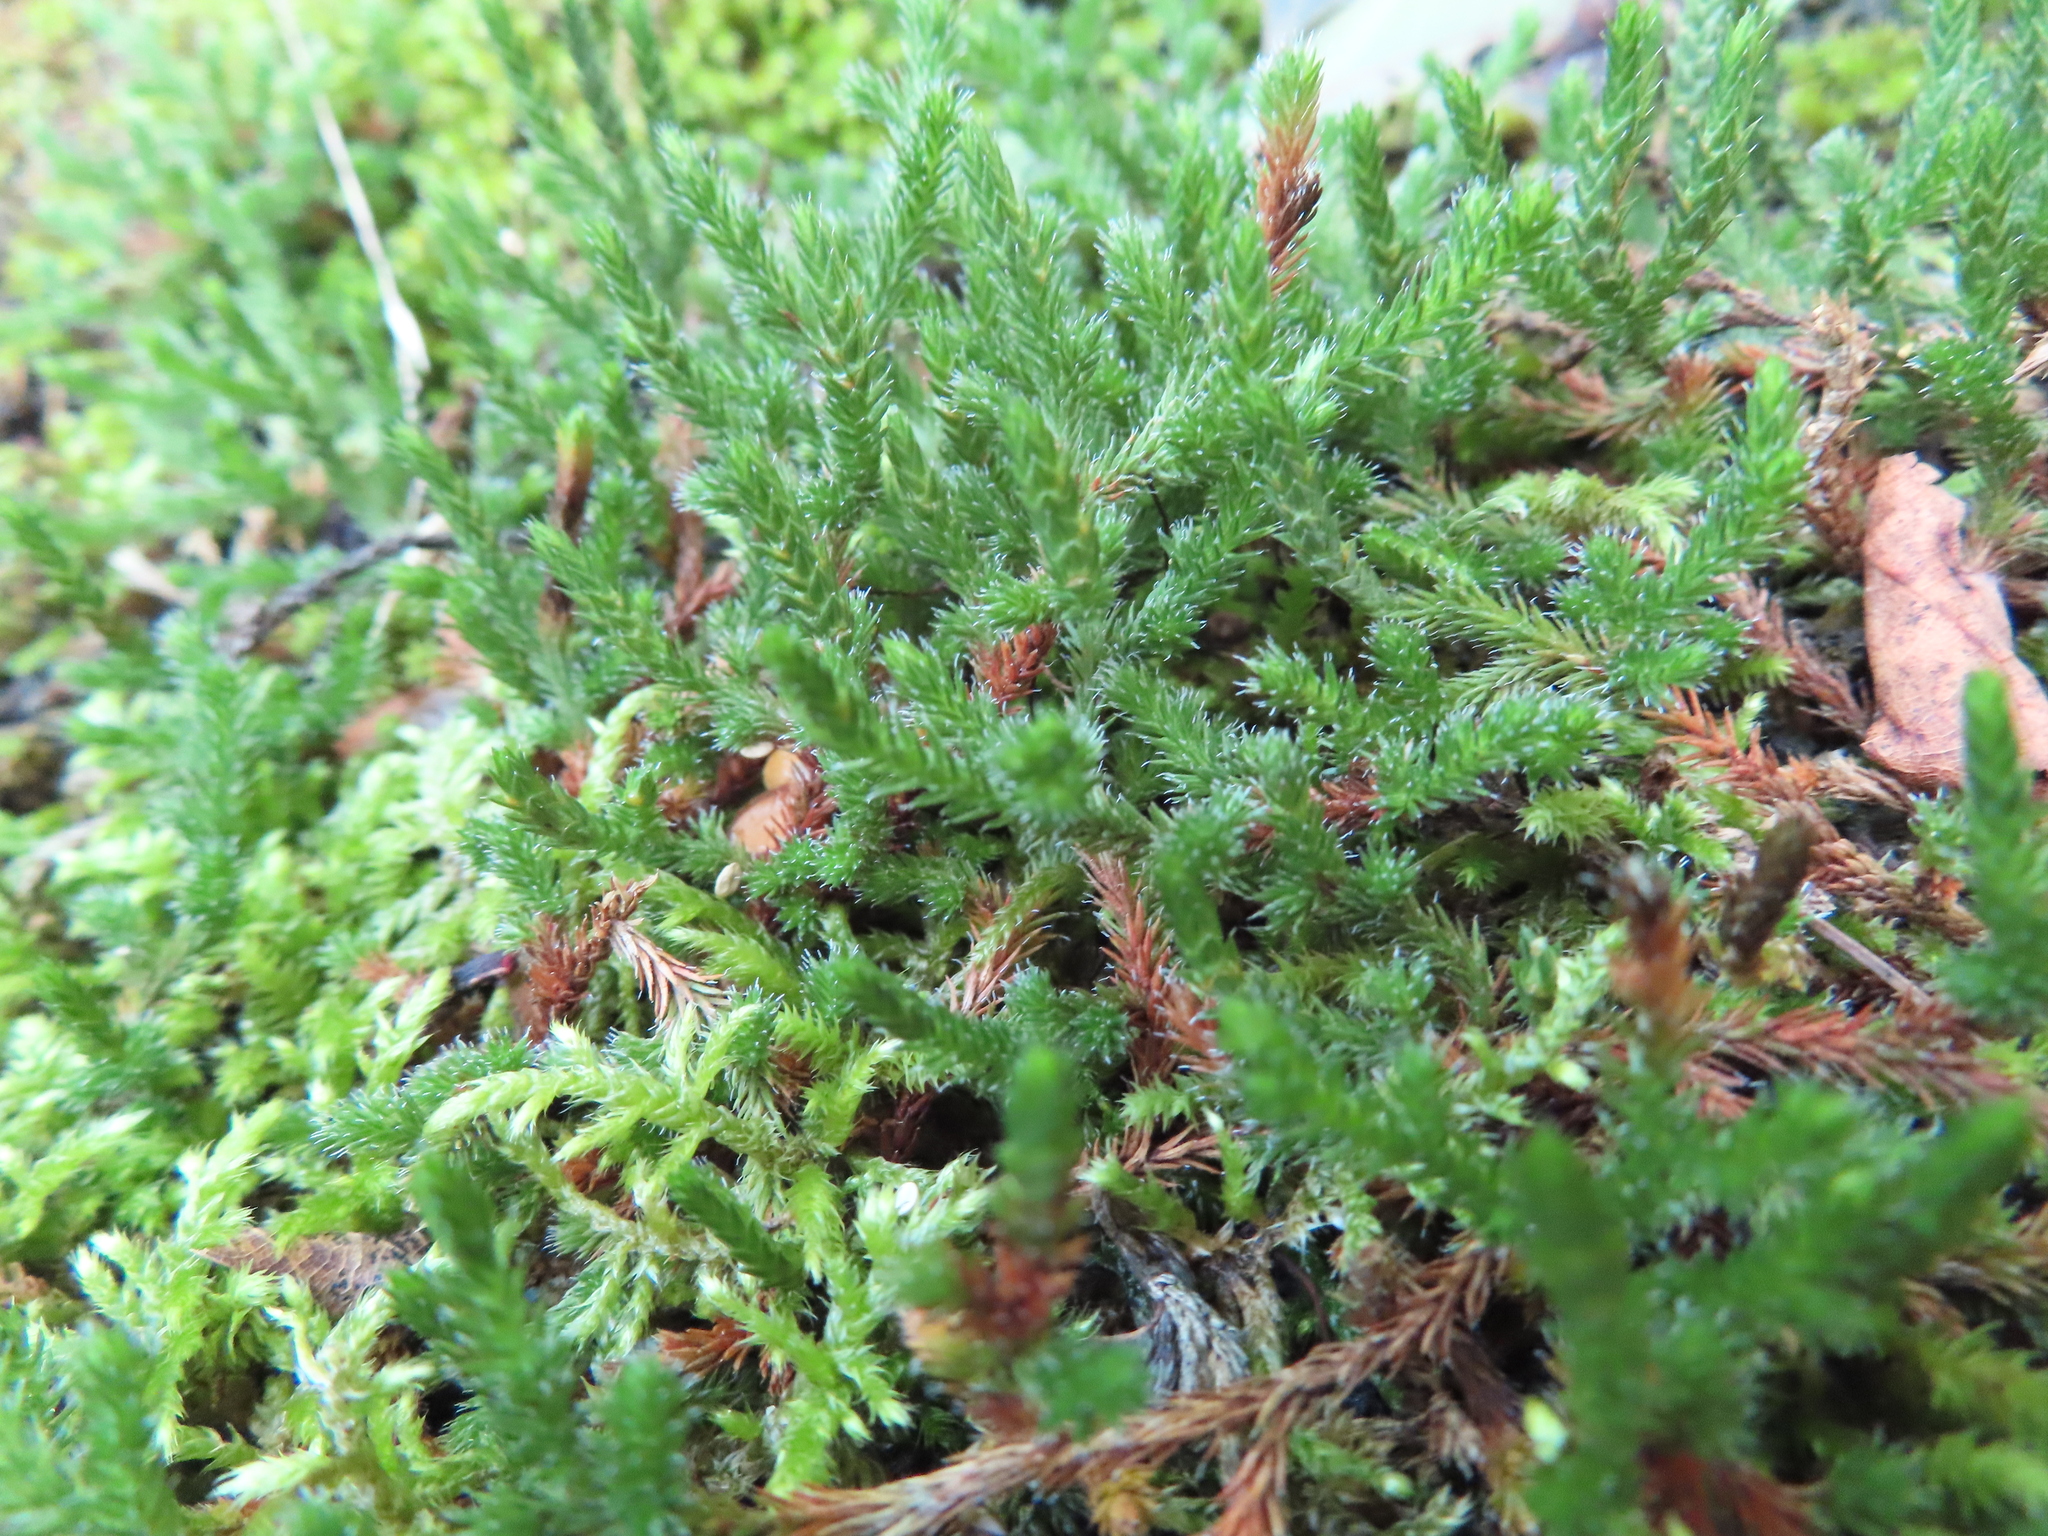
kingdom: Plantae
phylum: Tracheophyta
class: Lycopodiopsida
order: Selaginellales
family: Selaginellaceae
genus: Selaginella
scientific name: Selaginella rupestris
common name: Dwarf spikemoss
